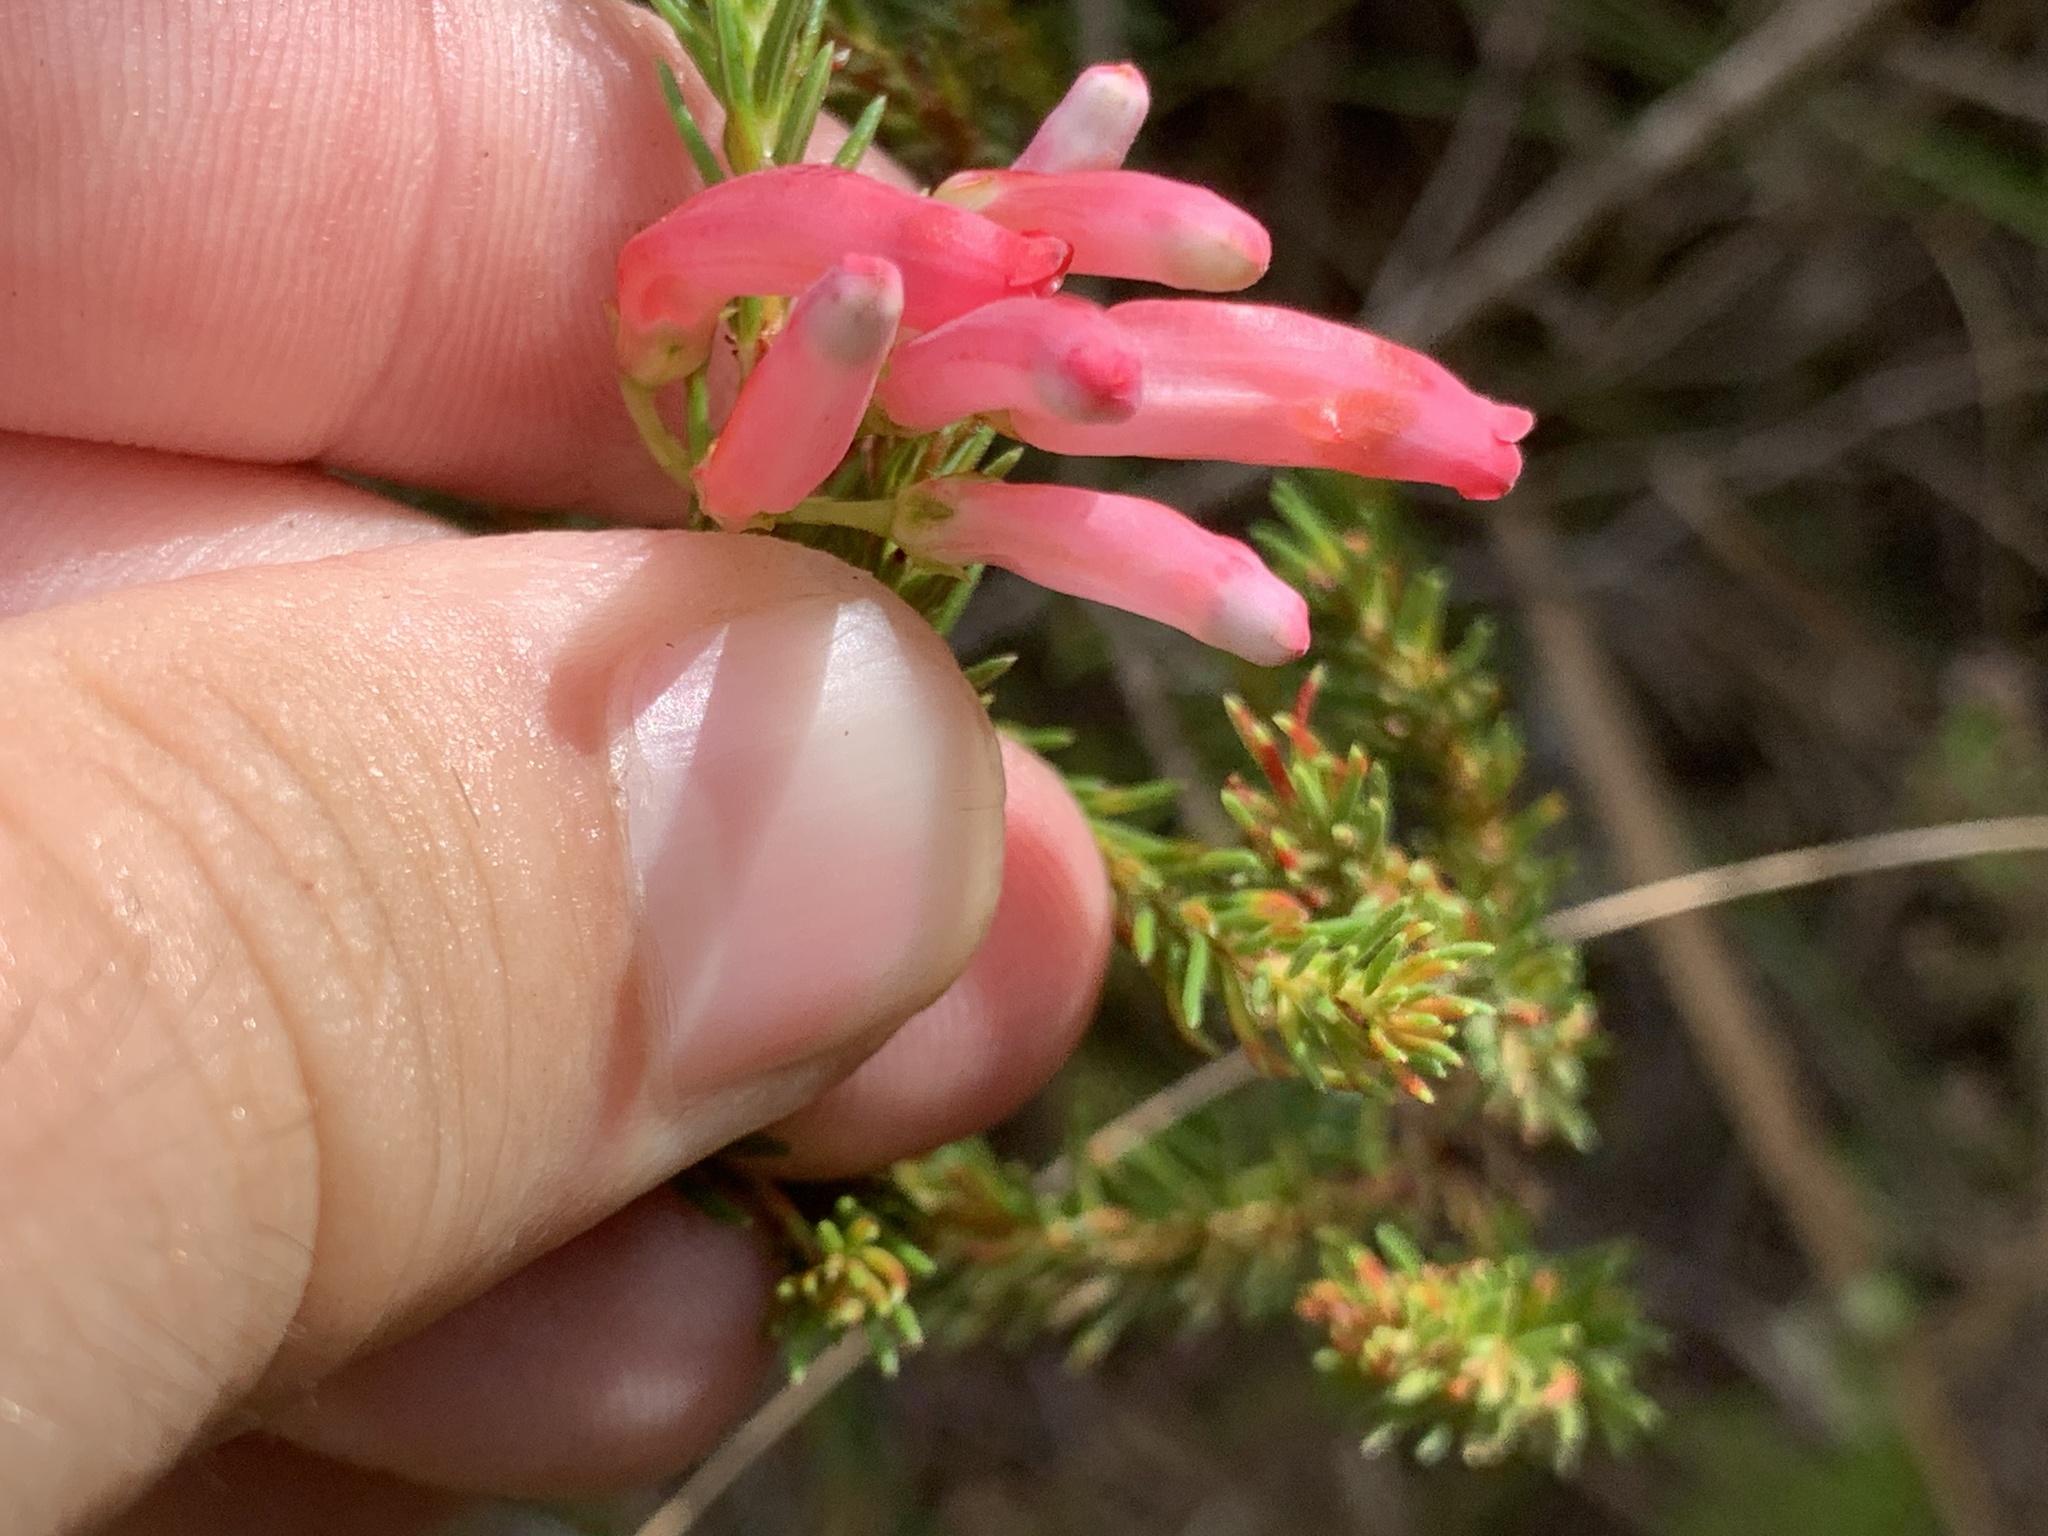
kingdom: Plantae
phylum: Tracheophyta
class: Magnoliopsida
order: Ericales
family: Ericaceae
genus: Erica
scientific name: Erica mammosa
